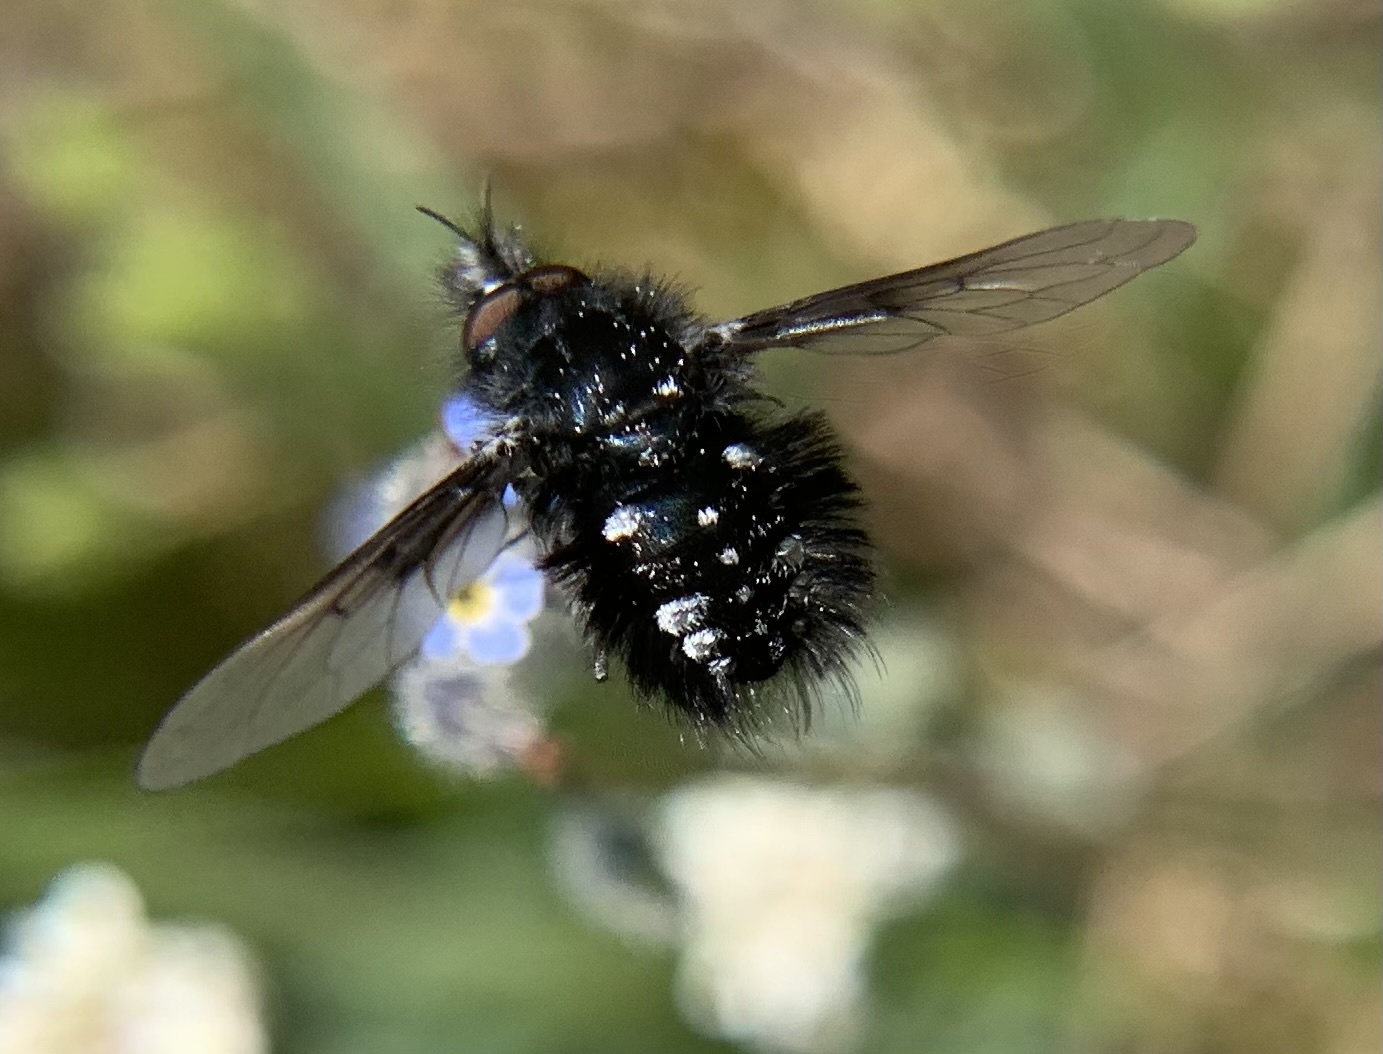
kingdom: Animalia
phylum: Arthropoda
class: Insecta
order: Diptera
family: Bombyliidae
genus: Bombylella
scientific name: Bombylella atra
